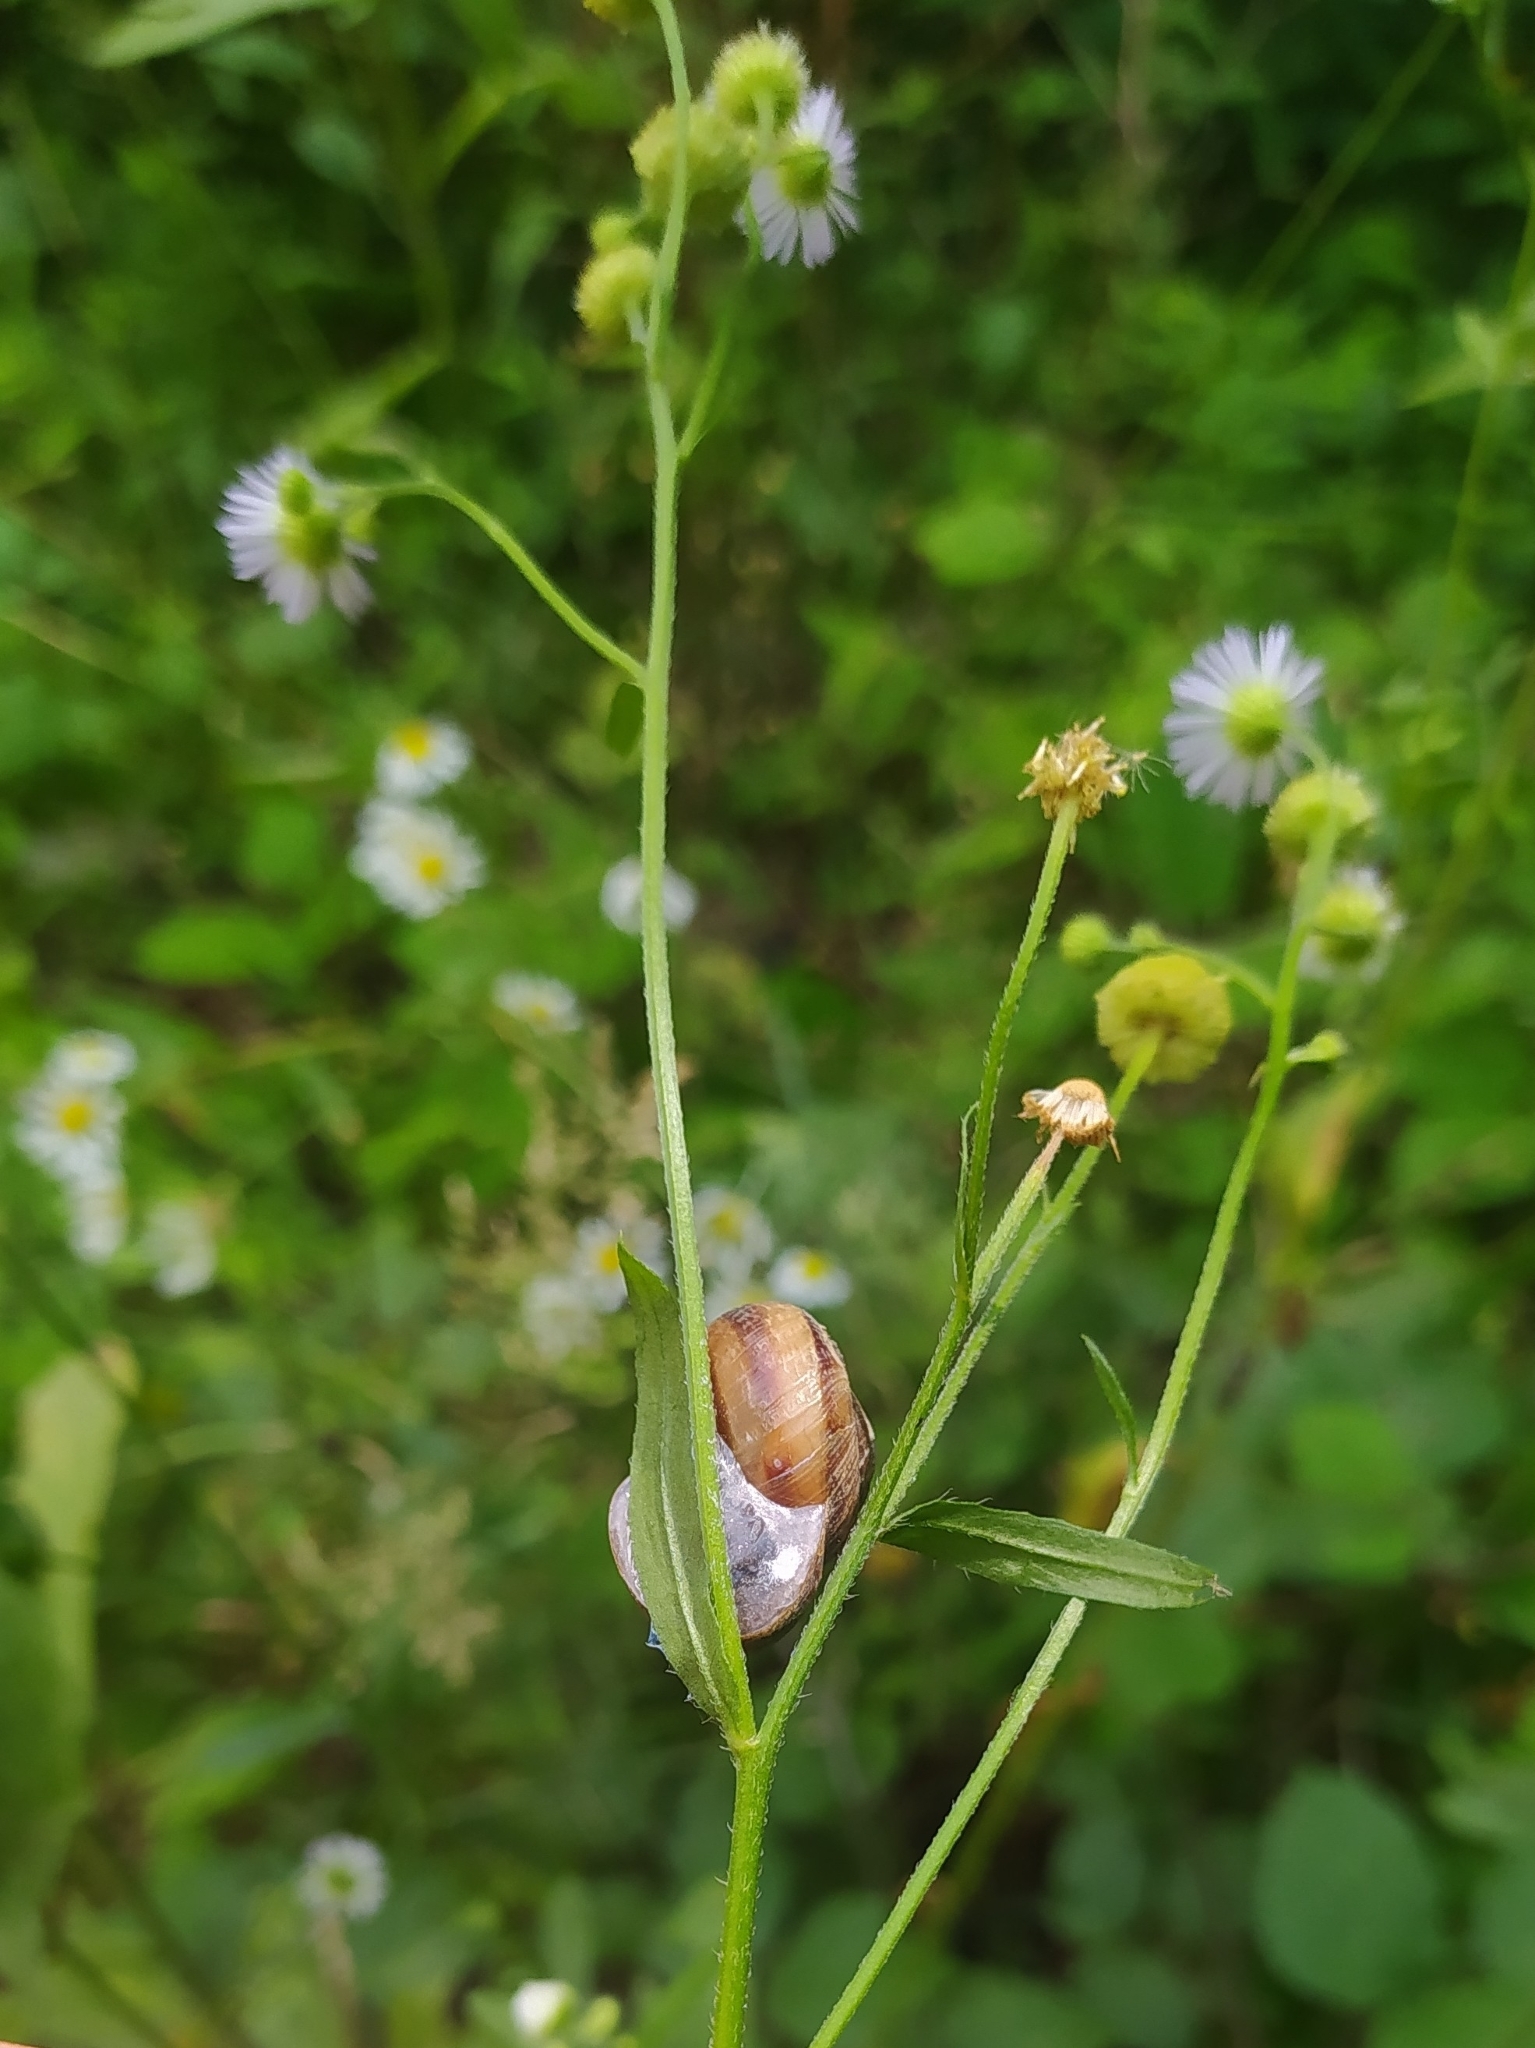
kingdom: Animalia
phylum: Mollusca
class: Gastropoda
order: Stylommatophora
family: Helicidae
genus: Caucasotachea
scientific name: Caucasotachea atrolabiata
